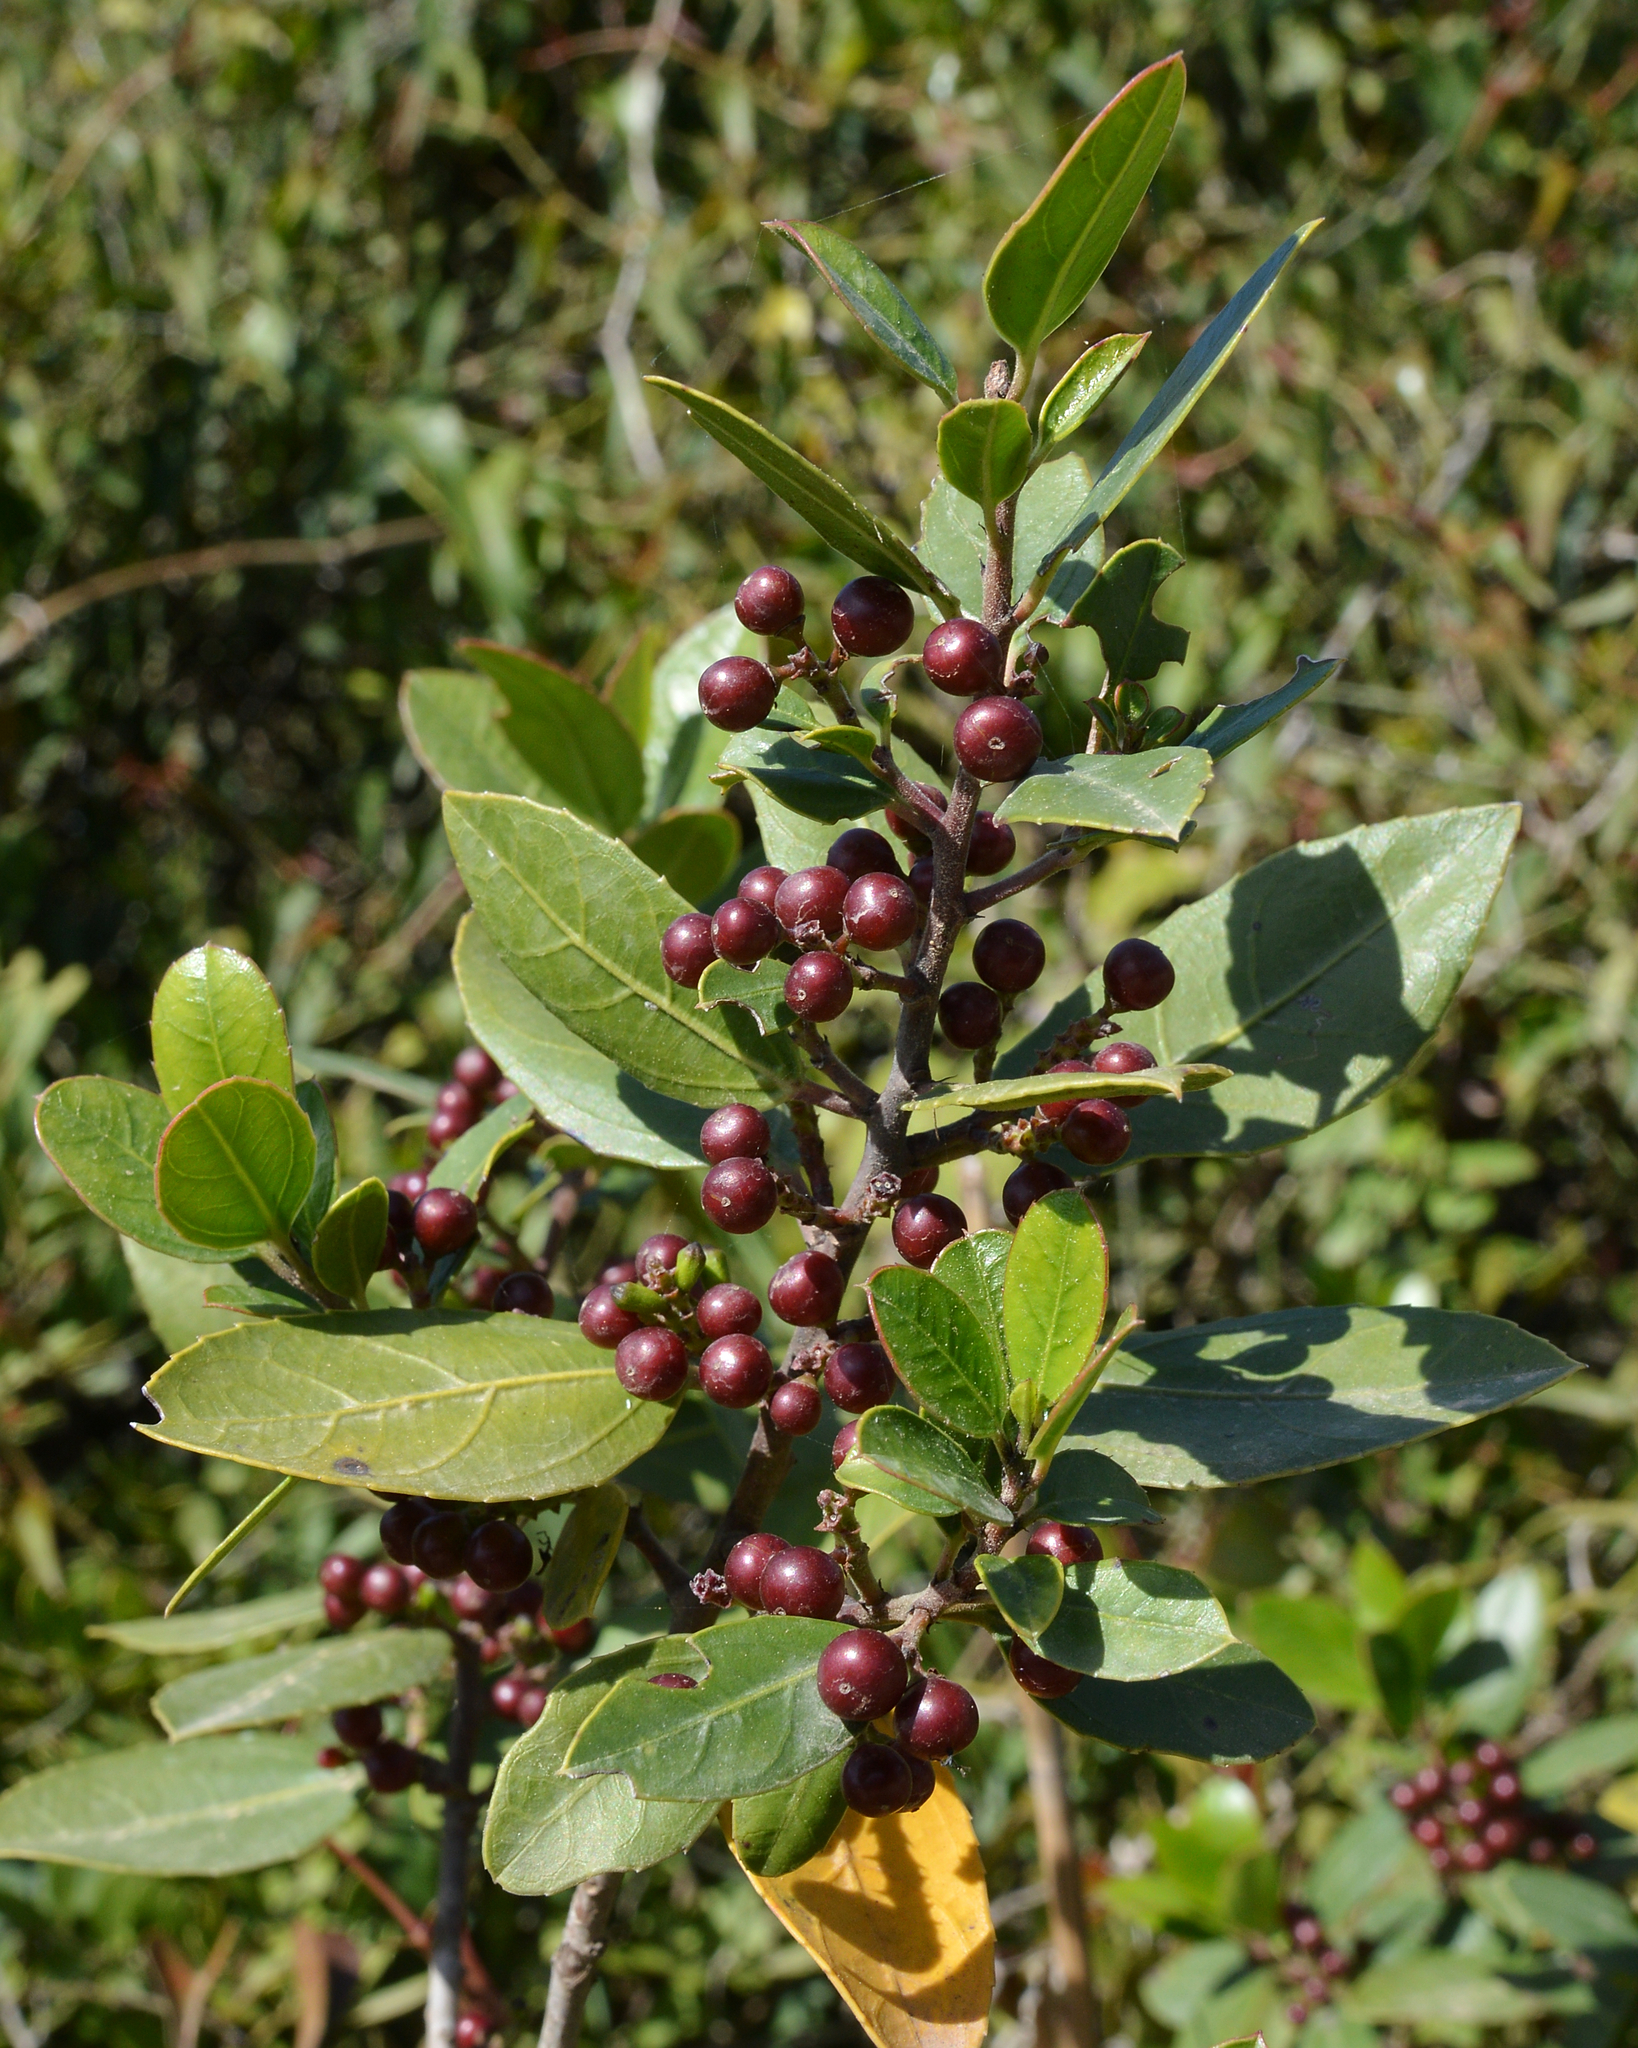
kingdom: Plantae
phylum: Tracheophyta
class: Magnoliopsida
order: Rosales
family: Rhamnaceae
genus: Rhamnus
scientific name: Rhamnus alaternus
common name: Mediterranean buckthorn
